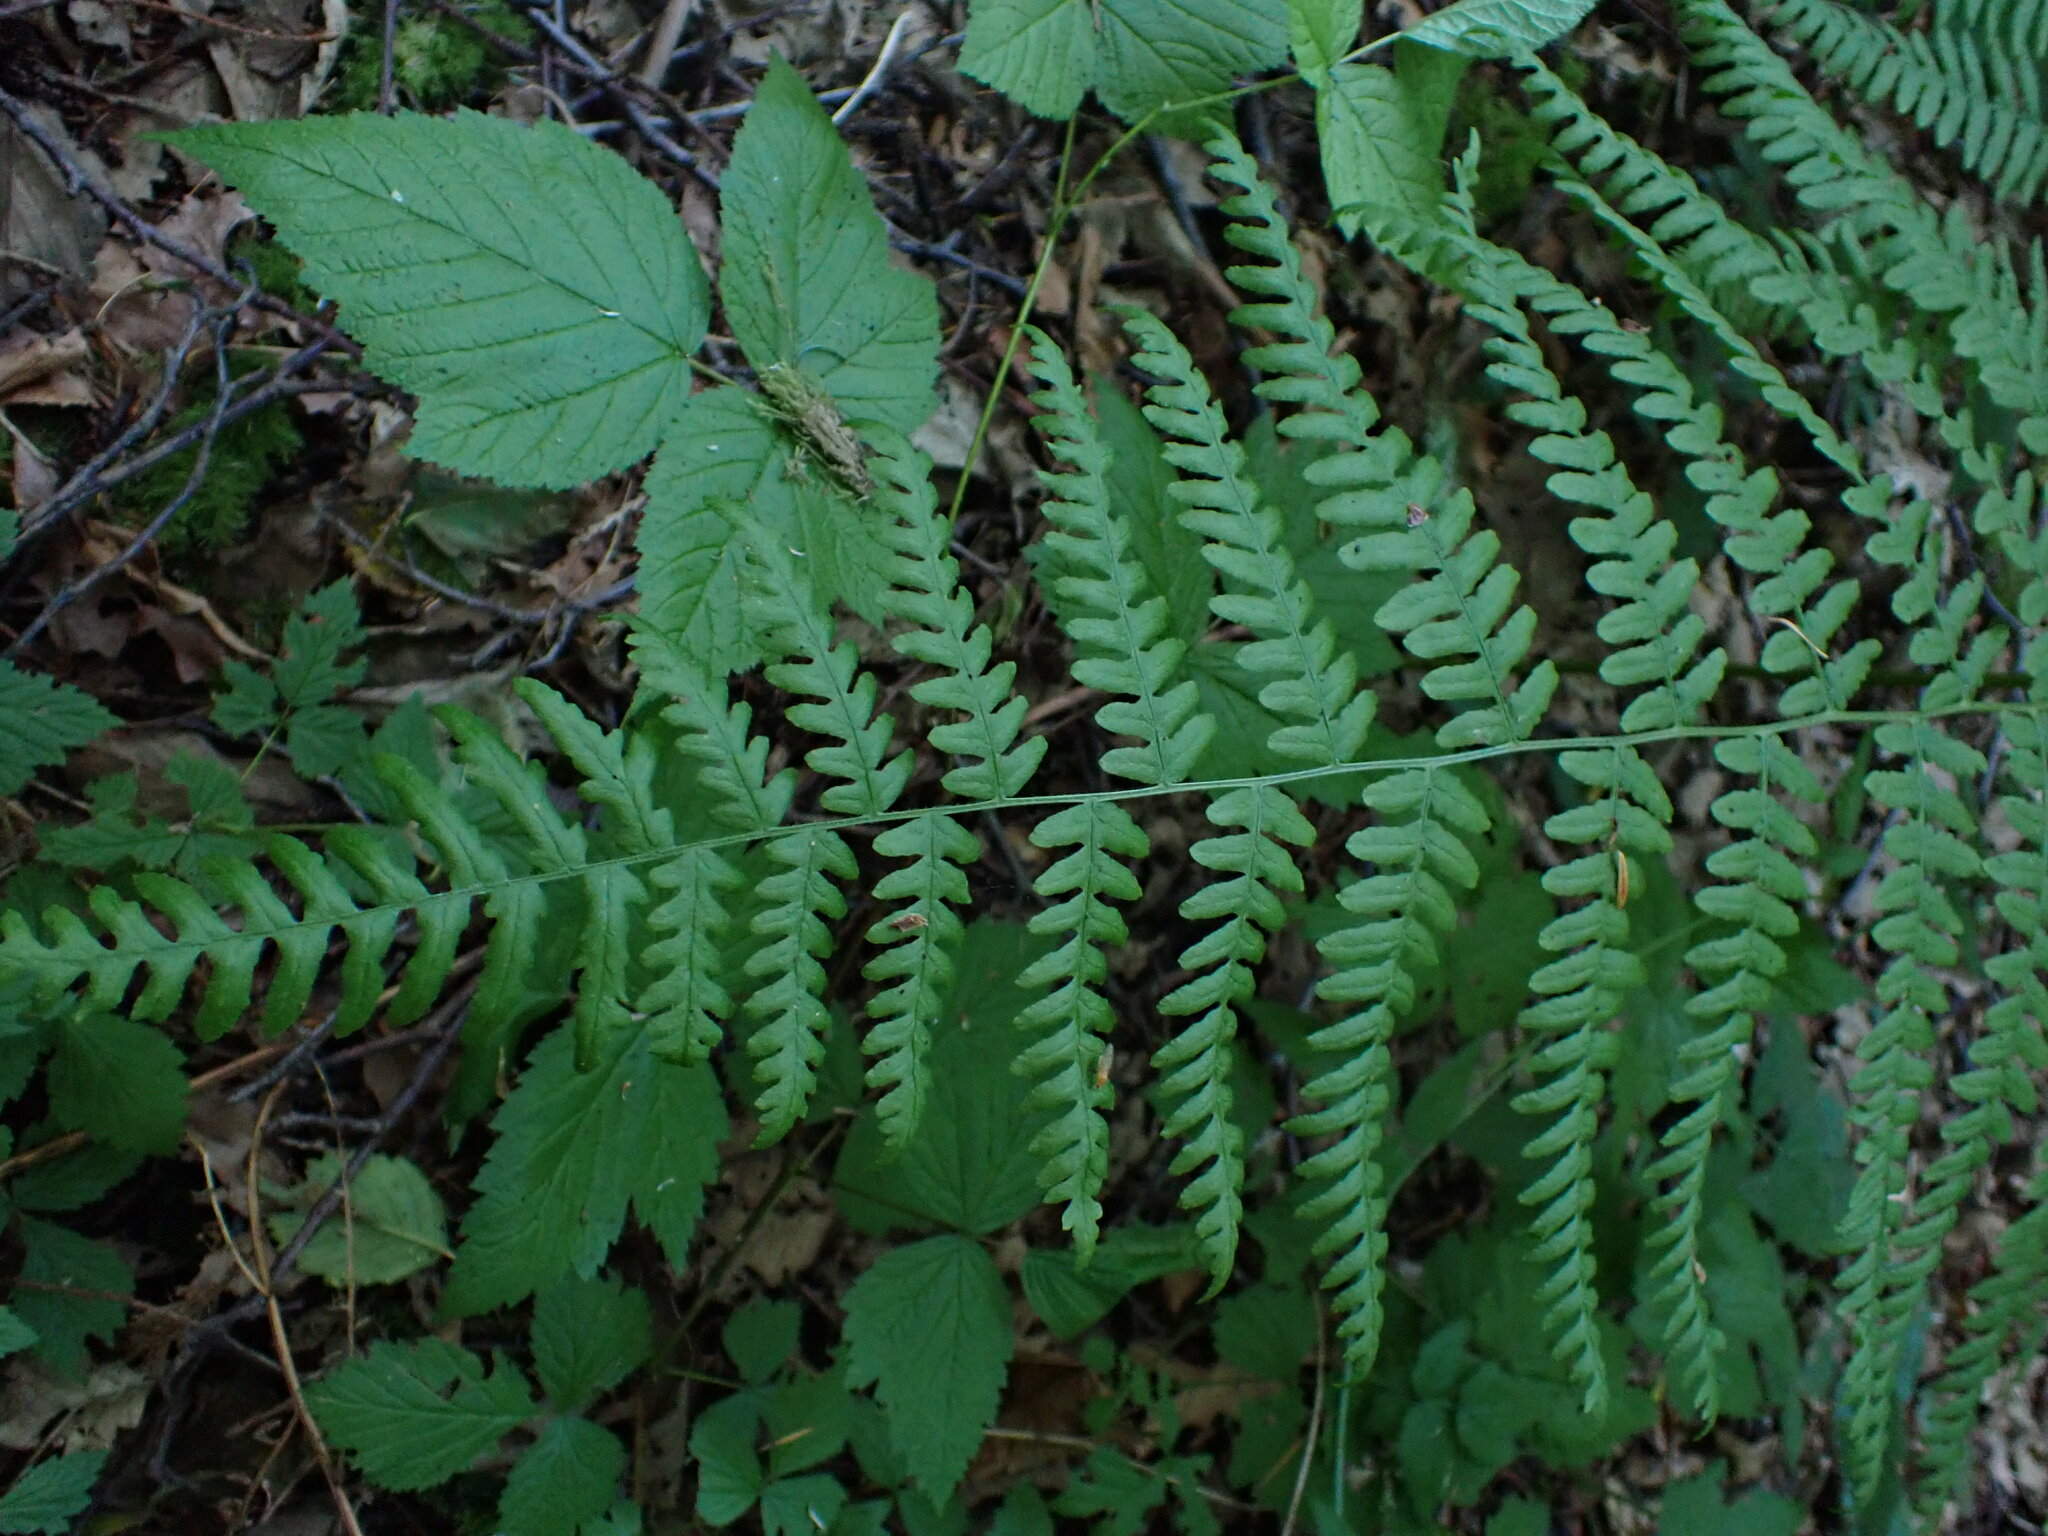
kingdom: Plantae
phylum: Tracheophyta
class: Polypodiopsida
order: Polypodiales
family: Dennstaedtiaceae
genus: Pteridium
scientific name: Pteridium aquilinum
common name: Bracken
